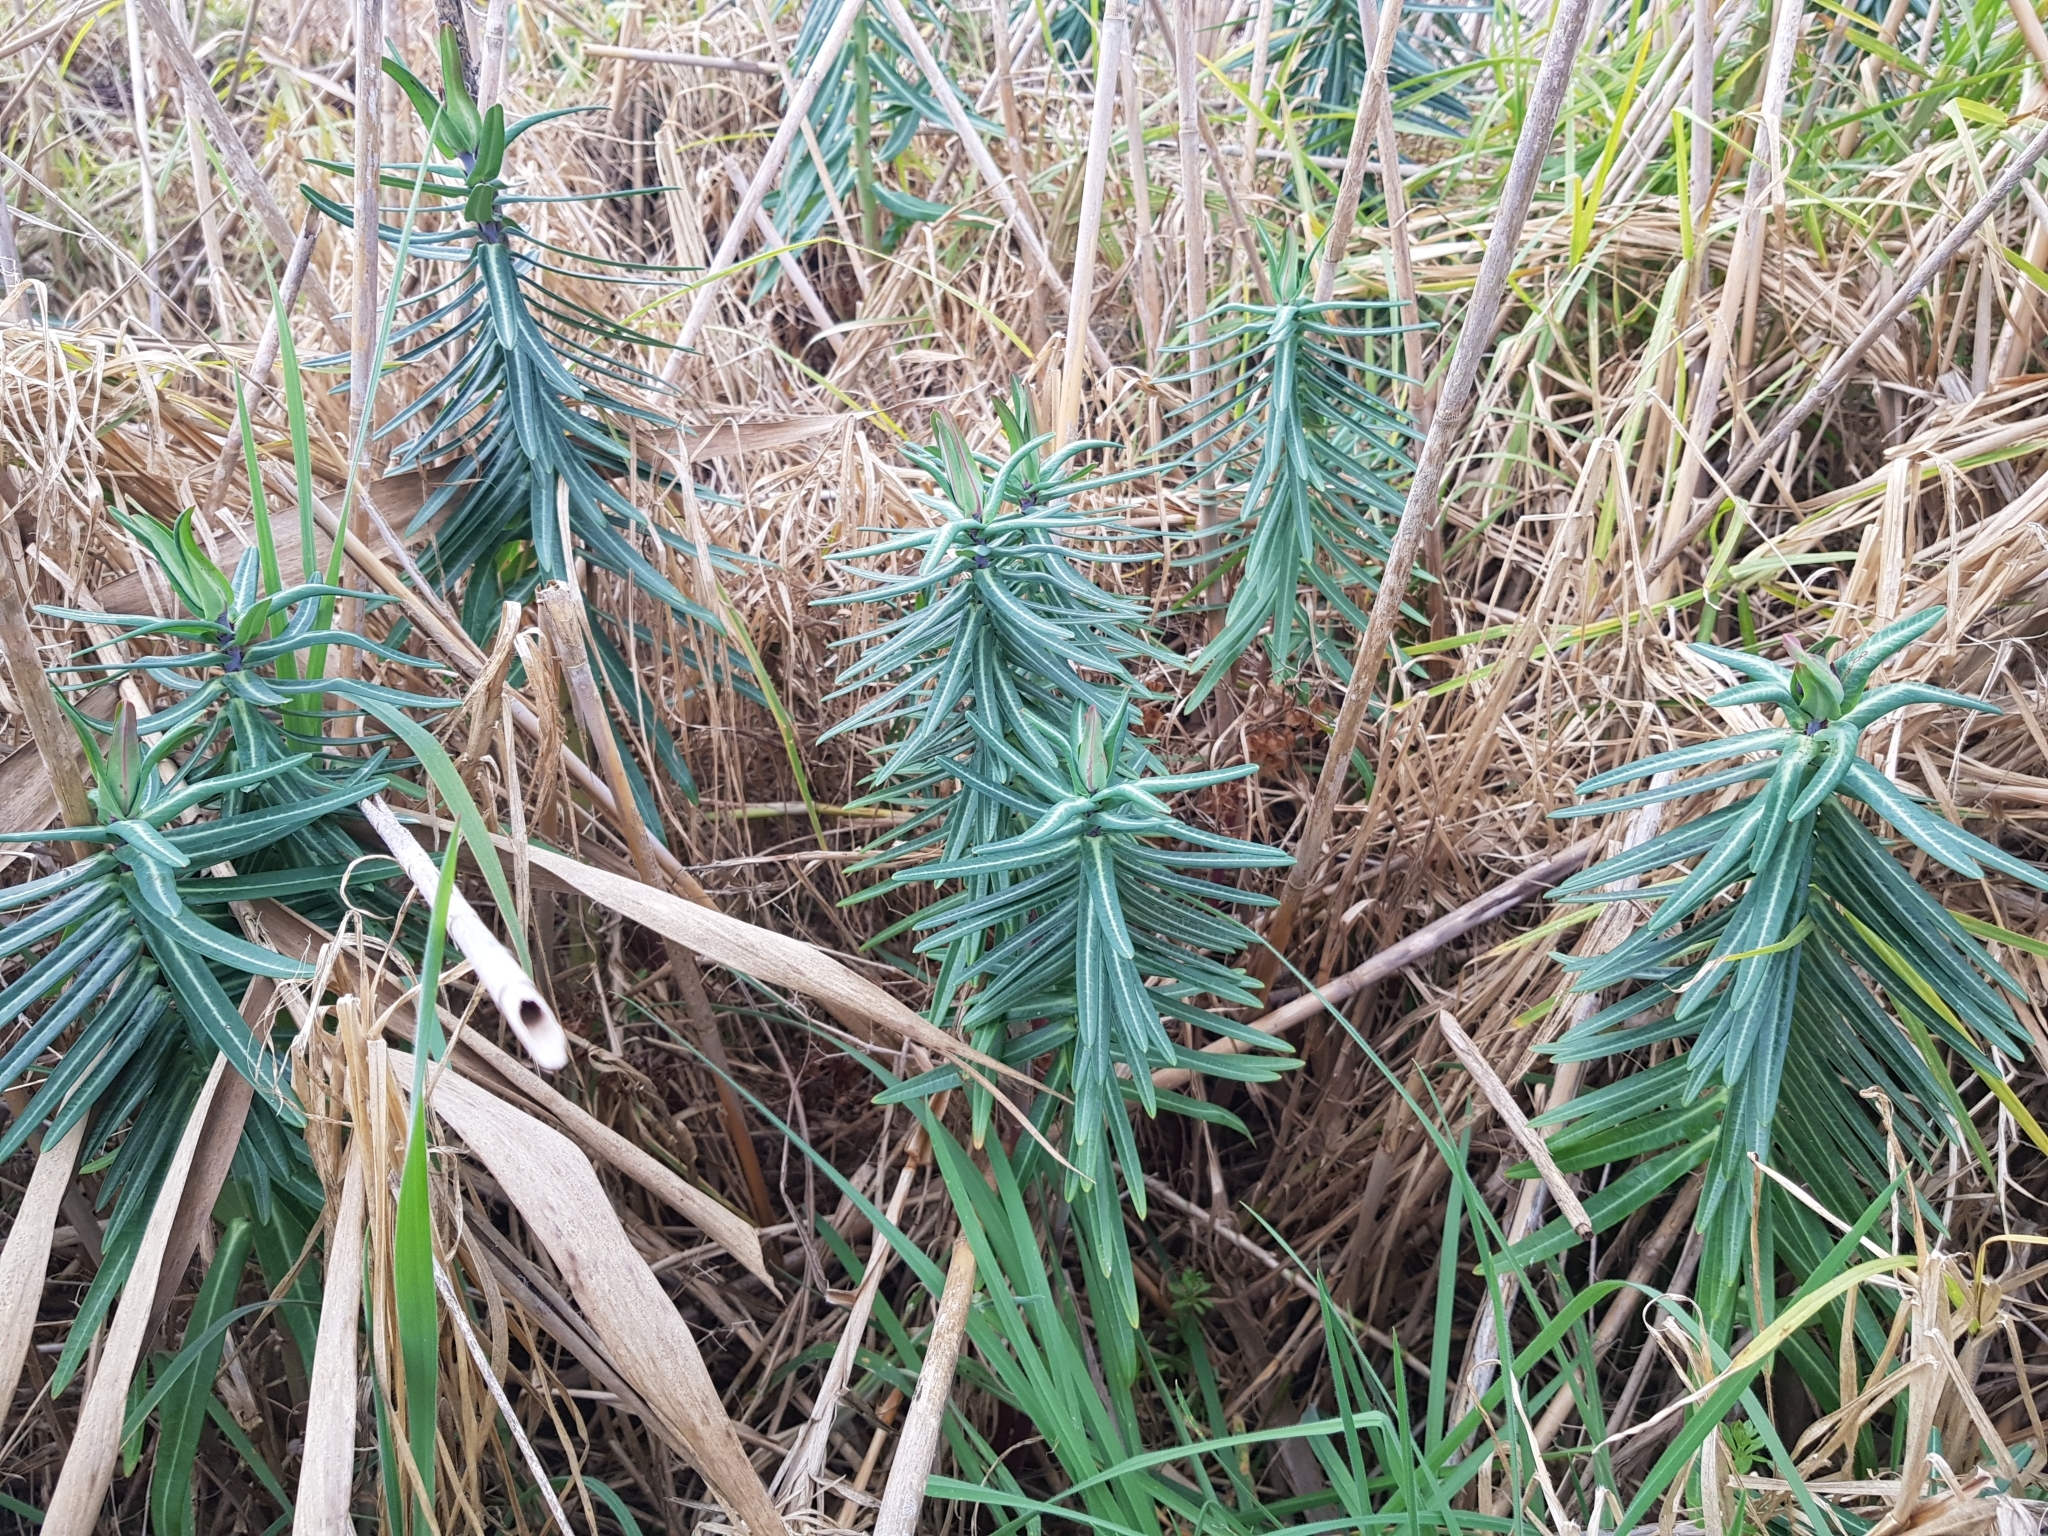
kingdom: Plantae
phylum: Tracheophyta
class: Magnoliopsida
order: Malpighiales
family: Euphorbiaceae
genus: Euphorbia
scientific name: Euphorbia lathyris
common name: Caper spurge
